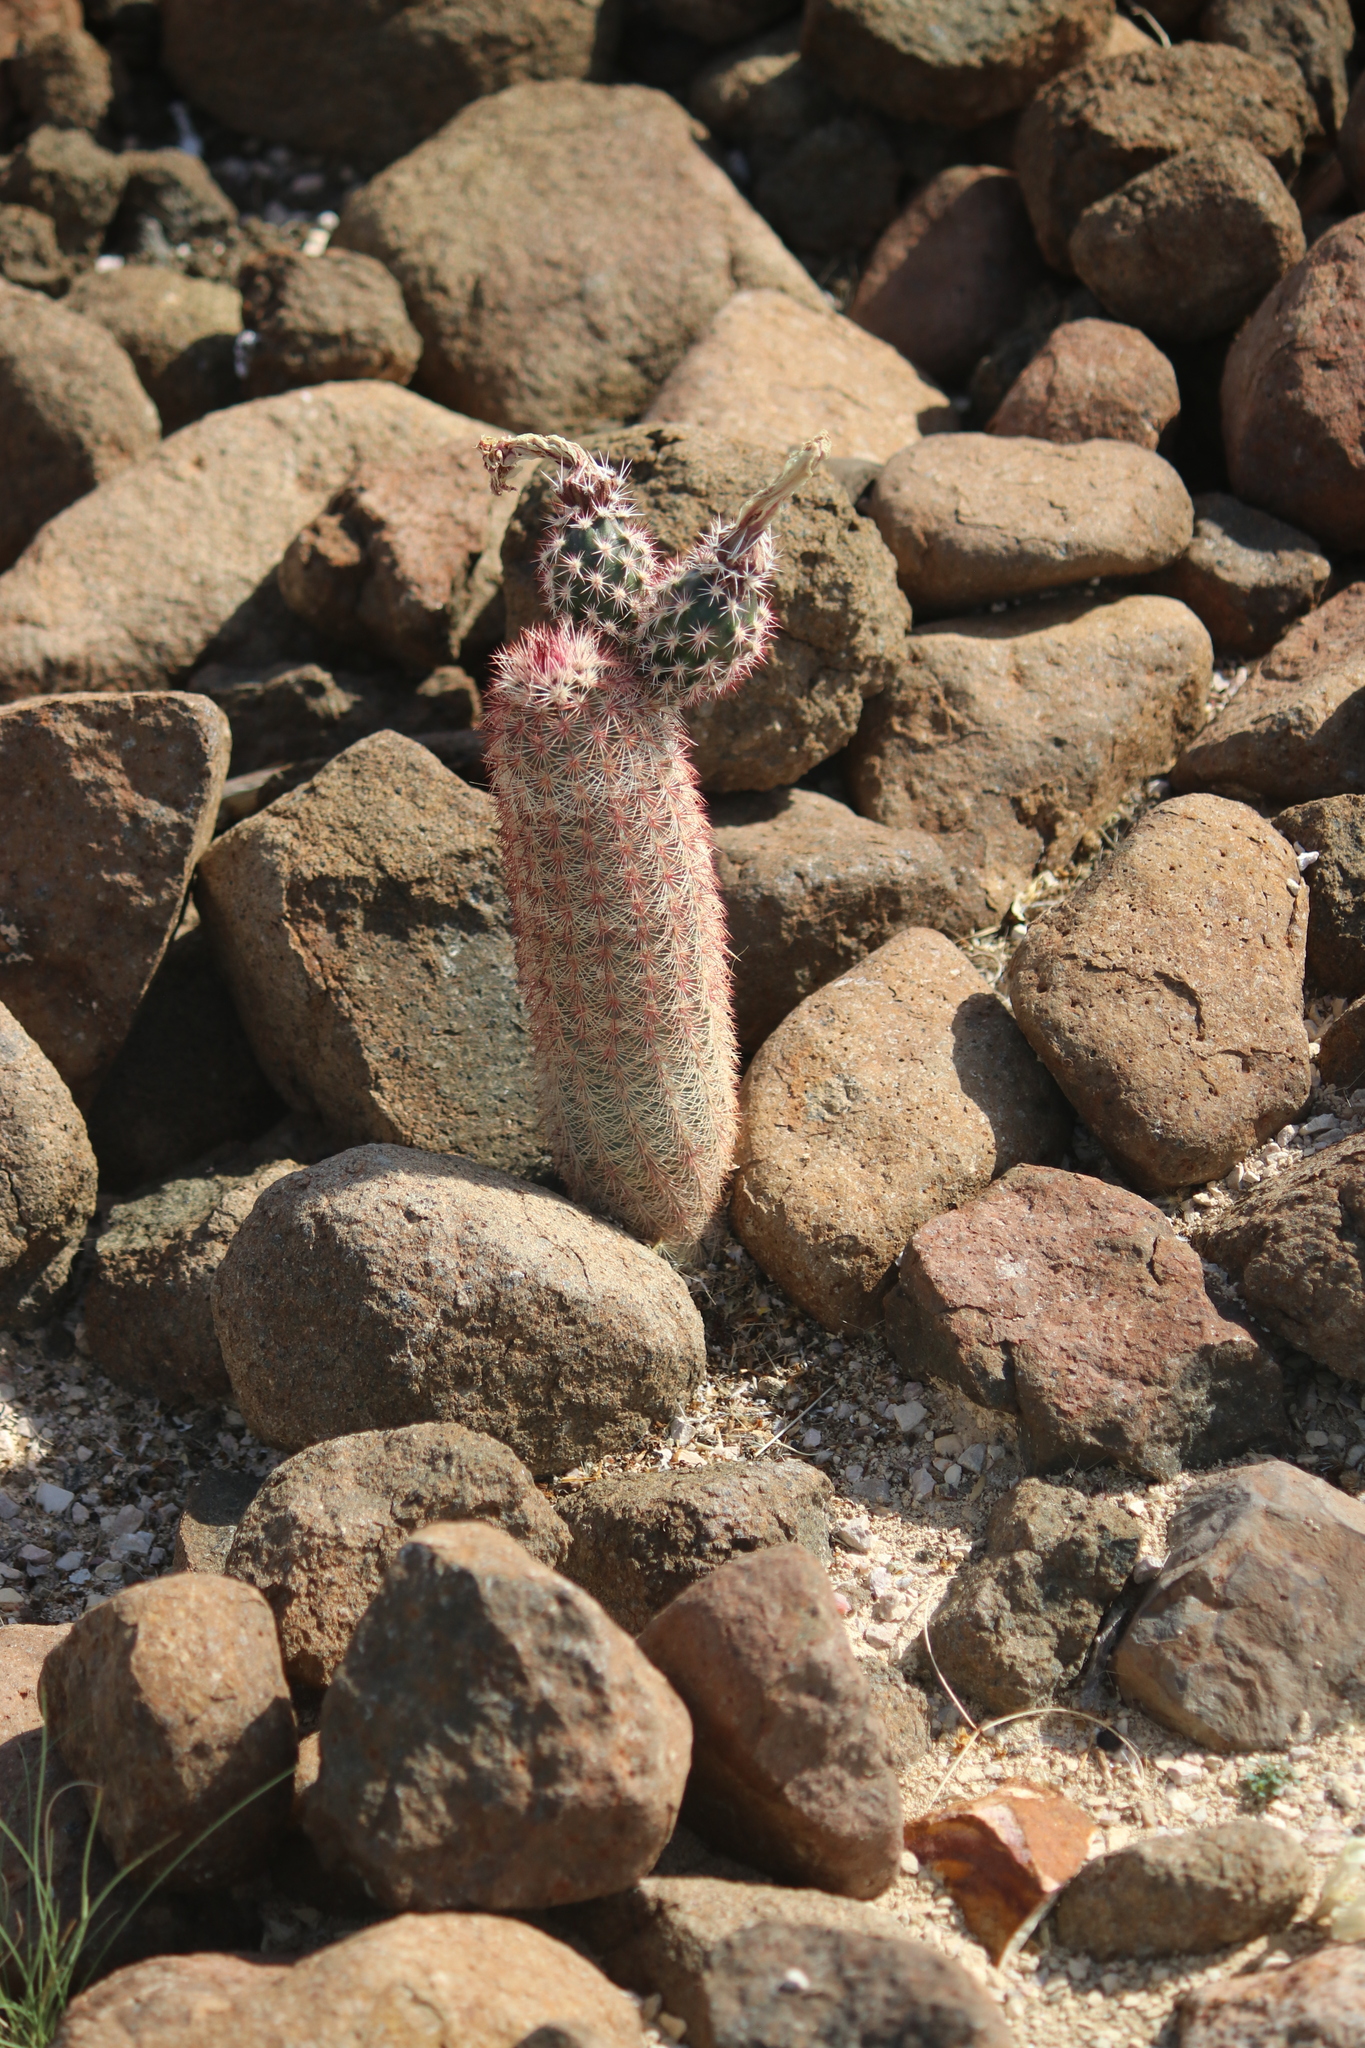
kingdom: Plantae
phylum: Tracheophyta
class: Magnoliopsida
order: Caryophyllales
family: Cactaceae
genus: Echinocereus
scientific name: Echinocereus dasyacanthus
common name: Spiny hedgehog cactus
